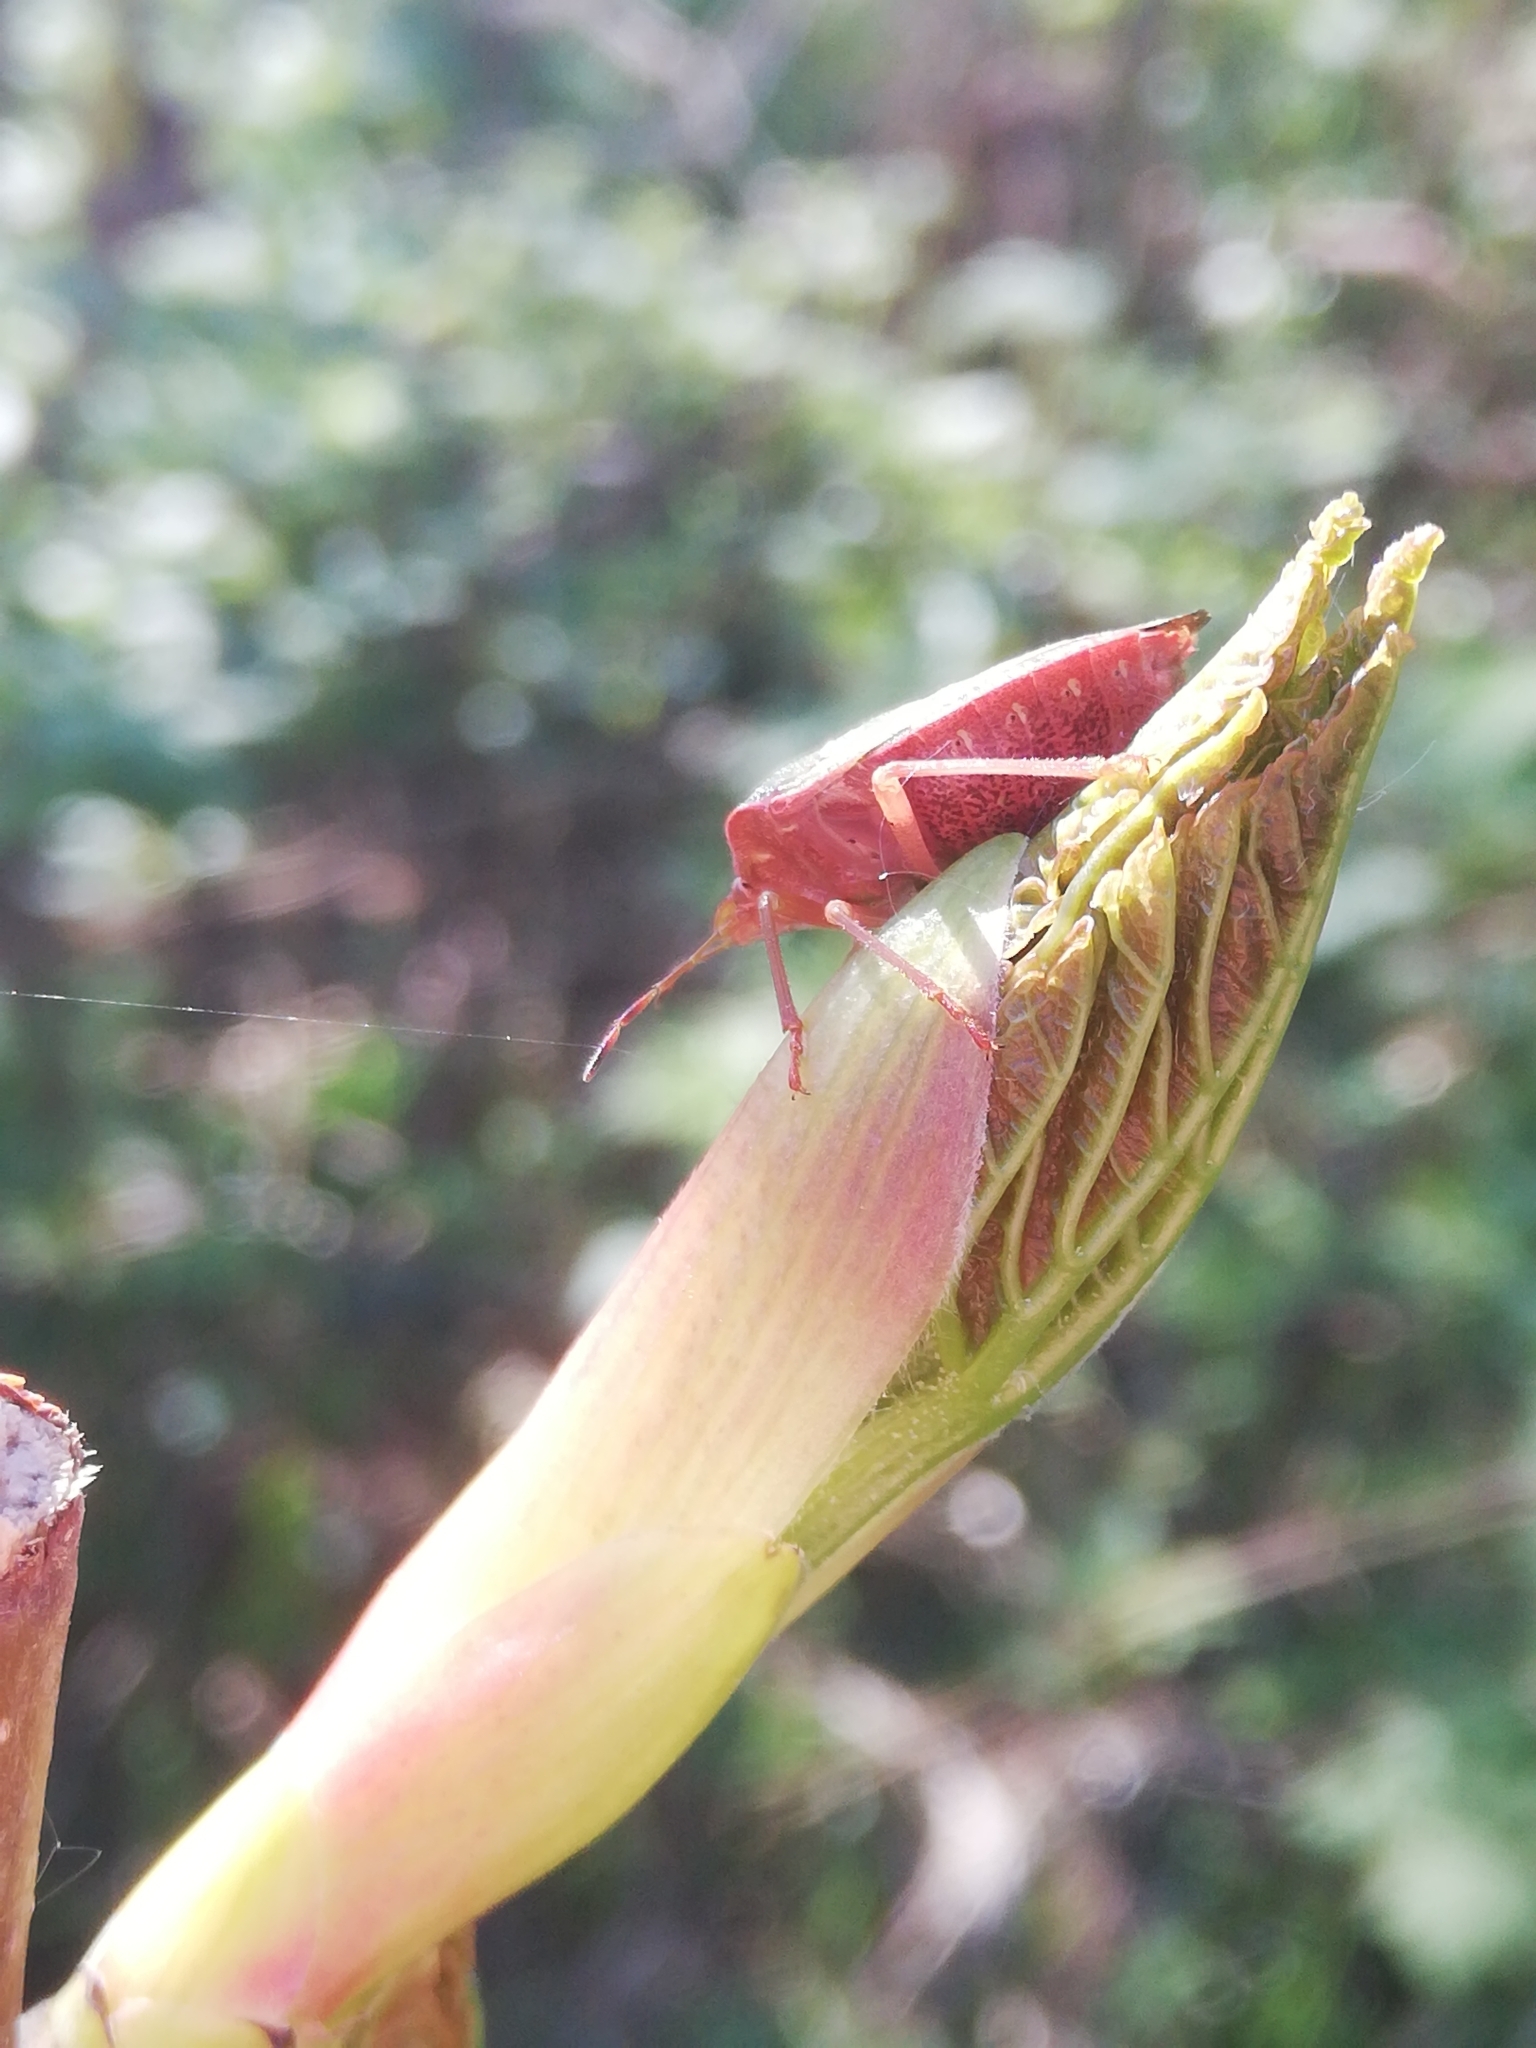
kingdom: Animalia
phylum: Arthropoda
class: Insecta
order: Hemiptera
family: Pentatomidae
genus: Palomena
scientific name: Palomena prasina
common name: Green shieldbug
